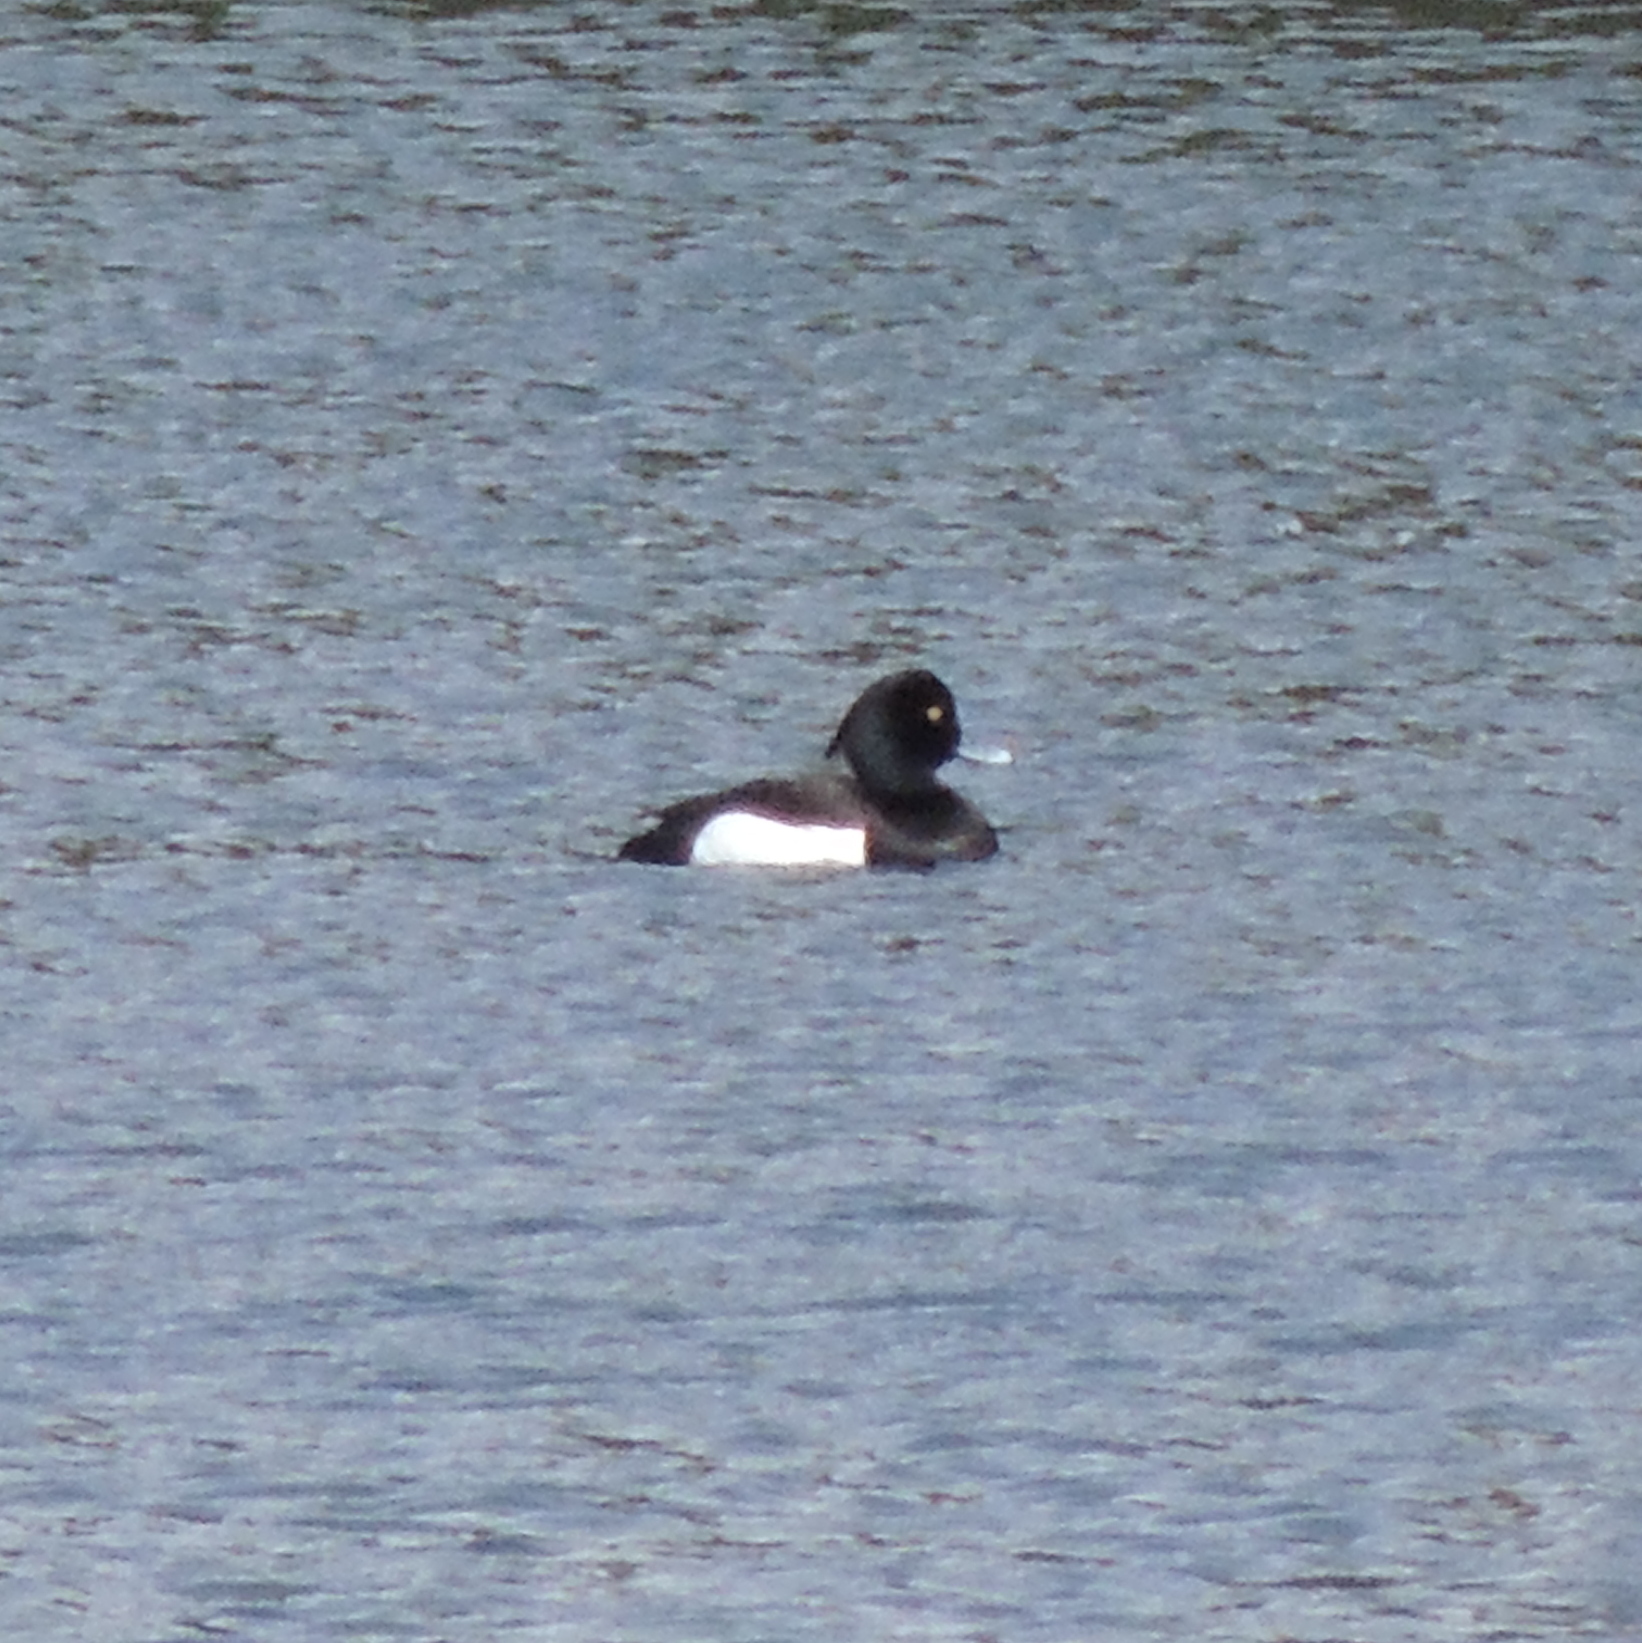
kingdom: Animalia
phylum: Chordata
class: Aves
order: Anseriformes
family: Anatidae
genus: Aythya
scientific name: Aythya fuligula
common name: Tufted duck
